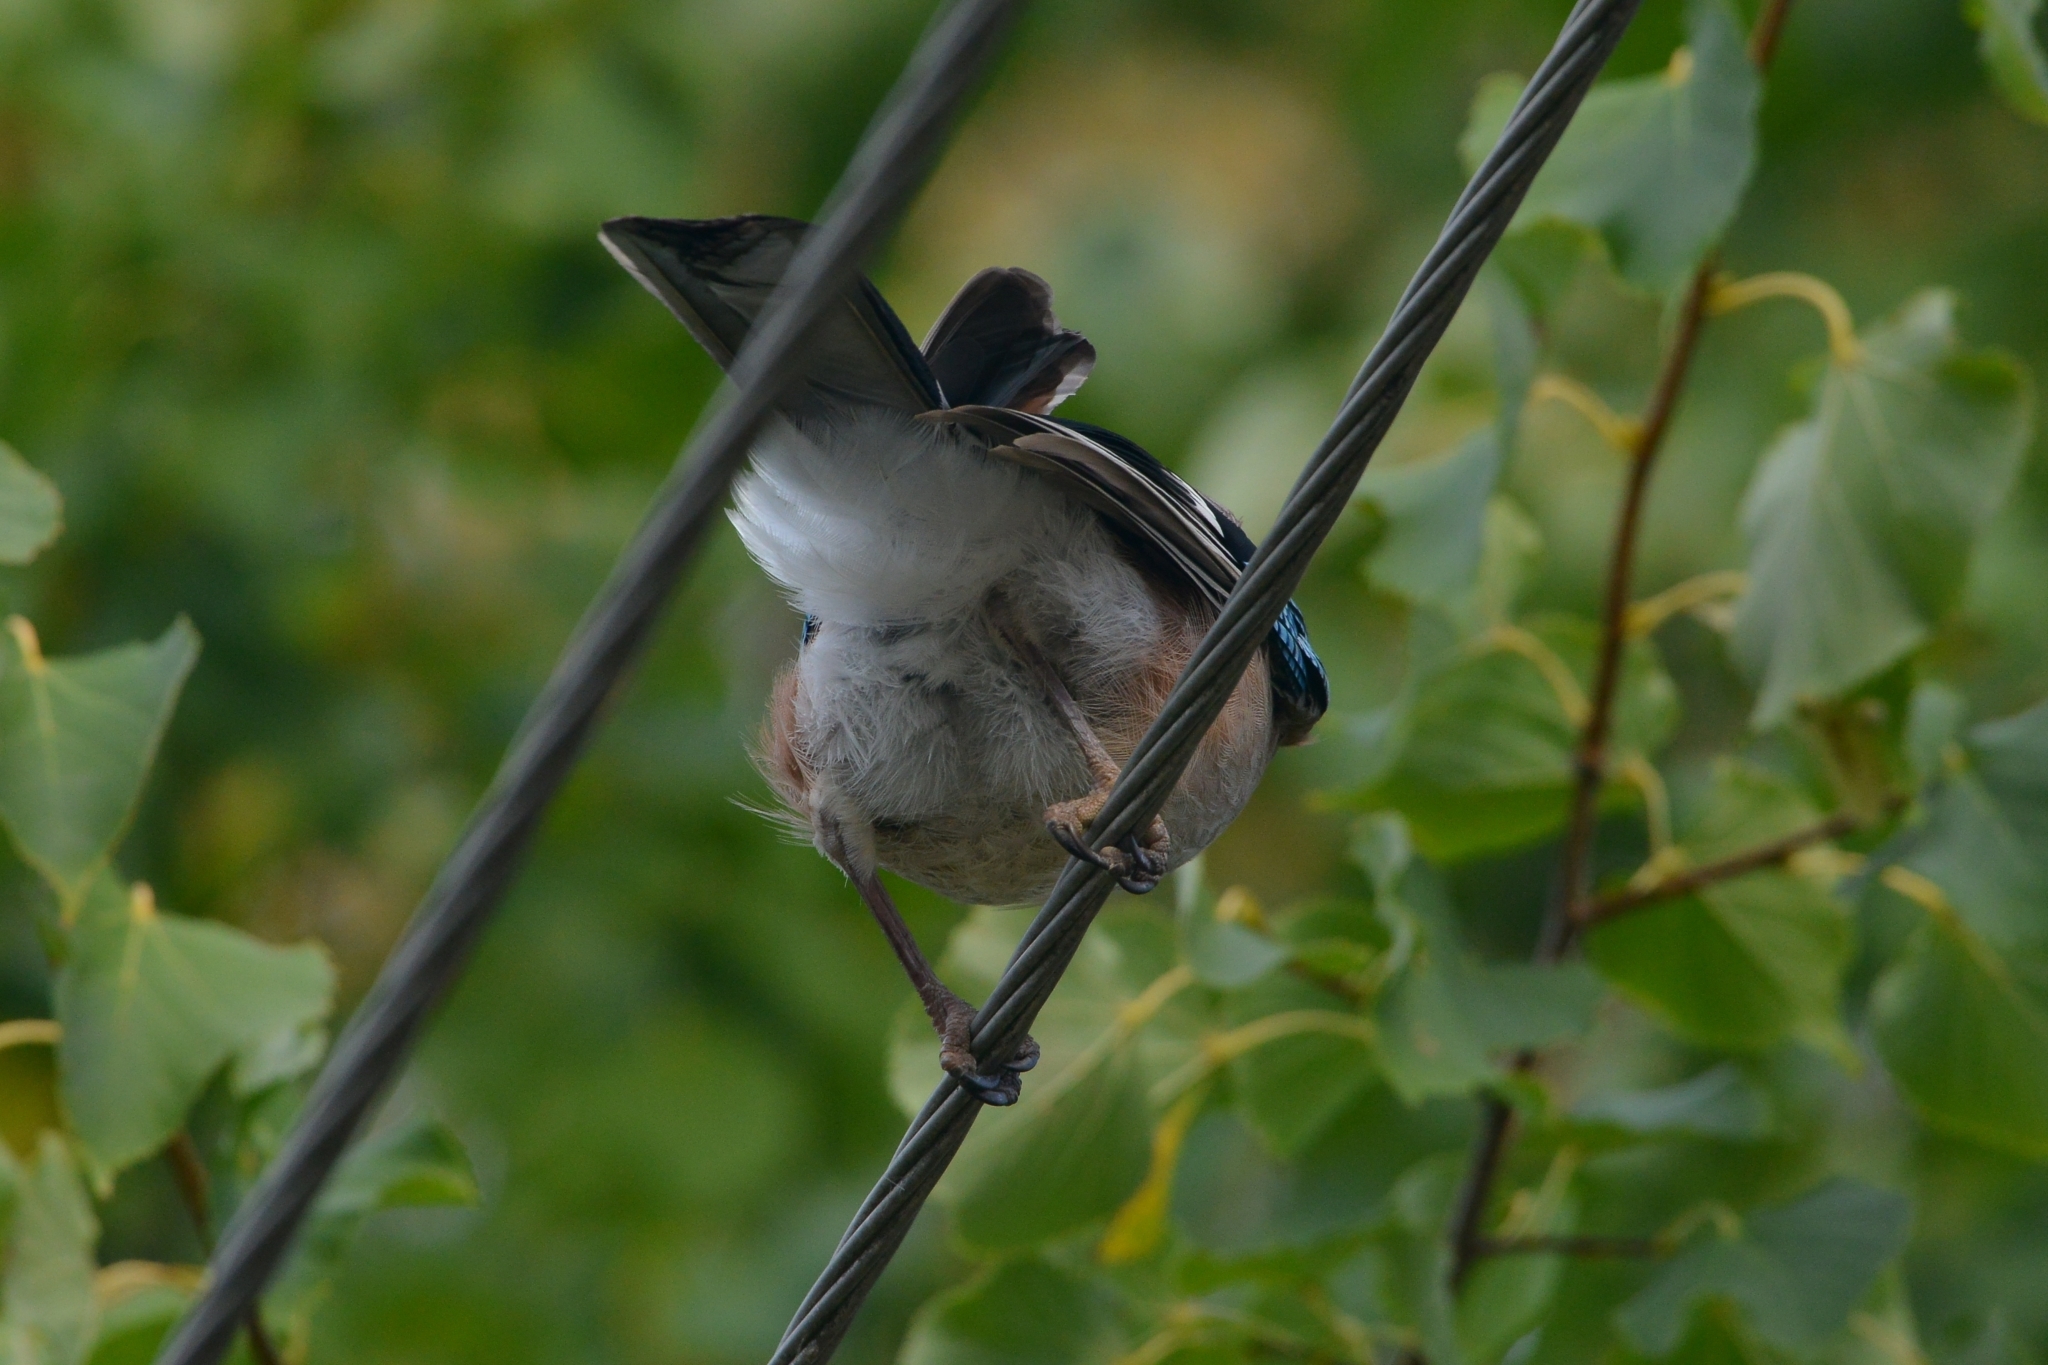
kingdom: Animalia
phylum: Chordata
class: Aves
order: Passeriformes
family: Corvidae
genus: Garrulus
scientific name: Garrulus glandarius
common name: Eurasian jay
